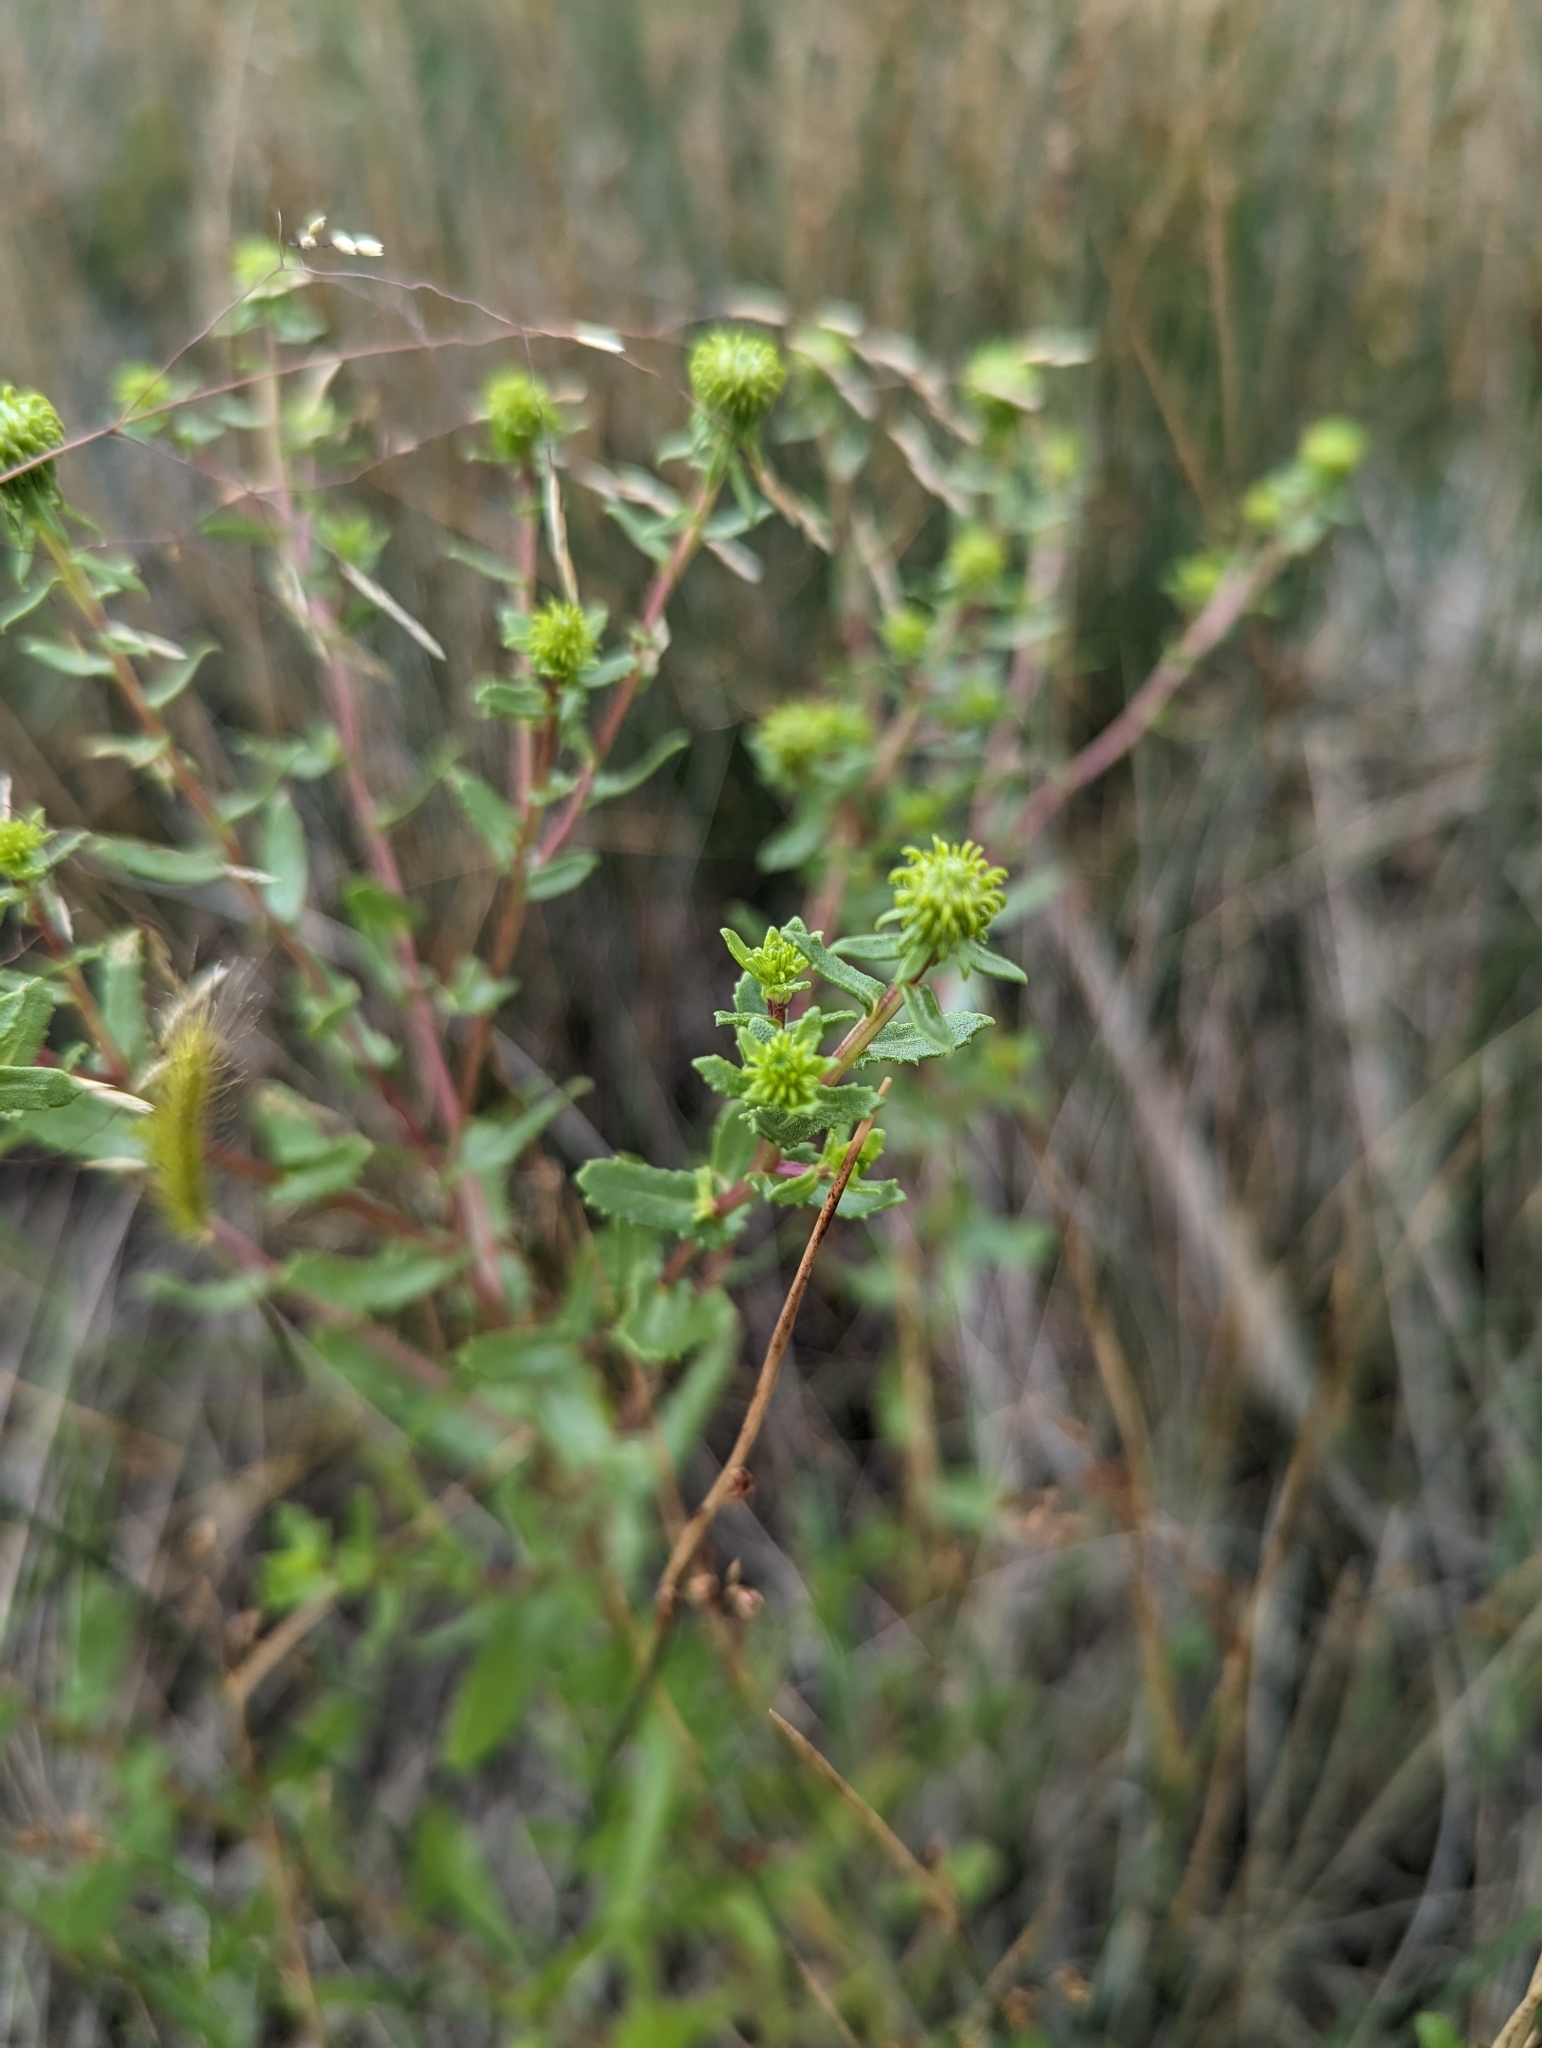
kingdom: Plantae
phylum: Tracheophyta
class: Magnoliopsida
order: Asterales
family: Asteraceae
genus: Grindelia
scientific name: Grindelia squarrosa
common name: Curly-cup gumweed
